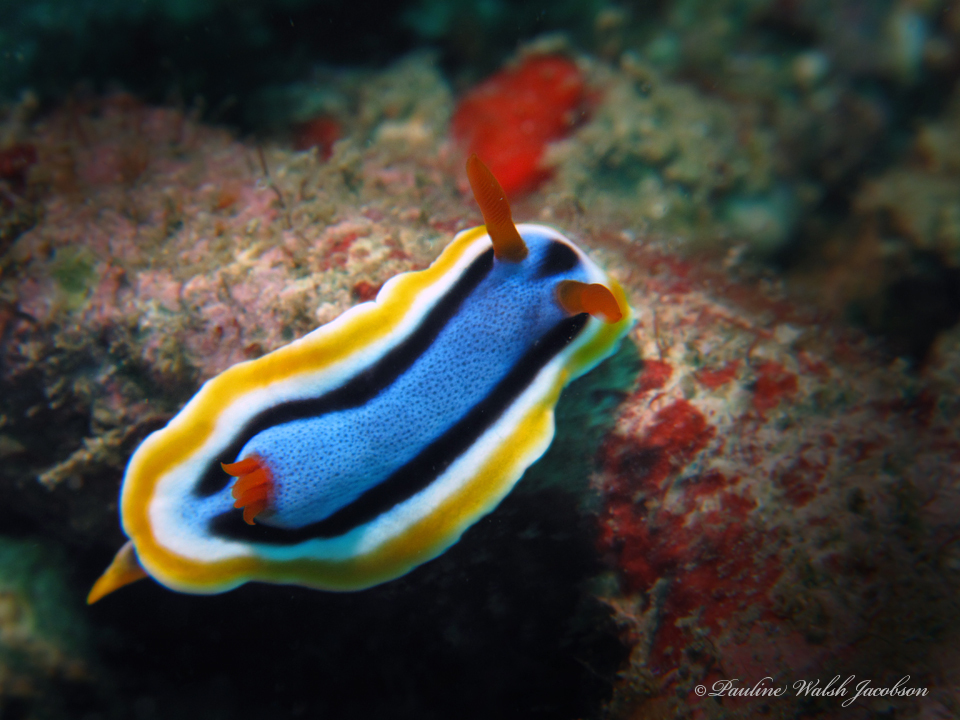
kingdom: Animalia
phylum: Mollusca
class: Gastropoda
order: Nudibranchia
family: Chromodorididae
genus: Chromodoris
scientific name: Chromodoris annae
